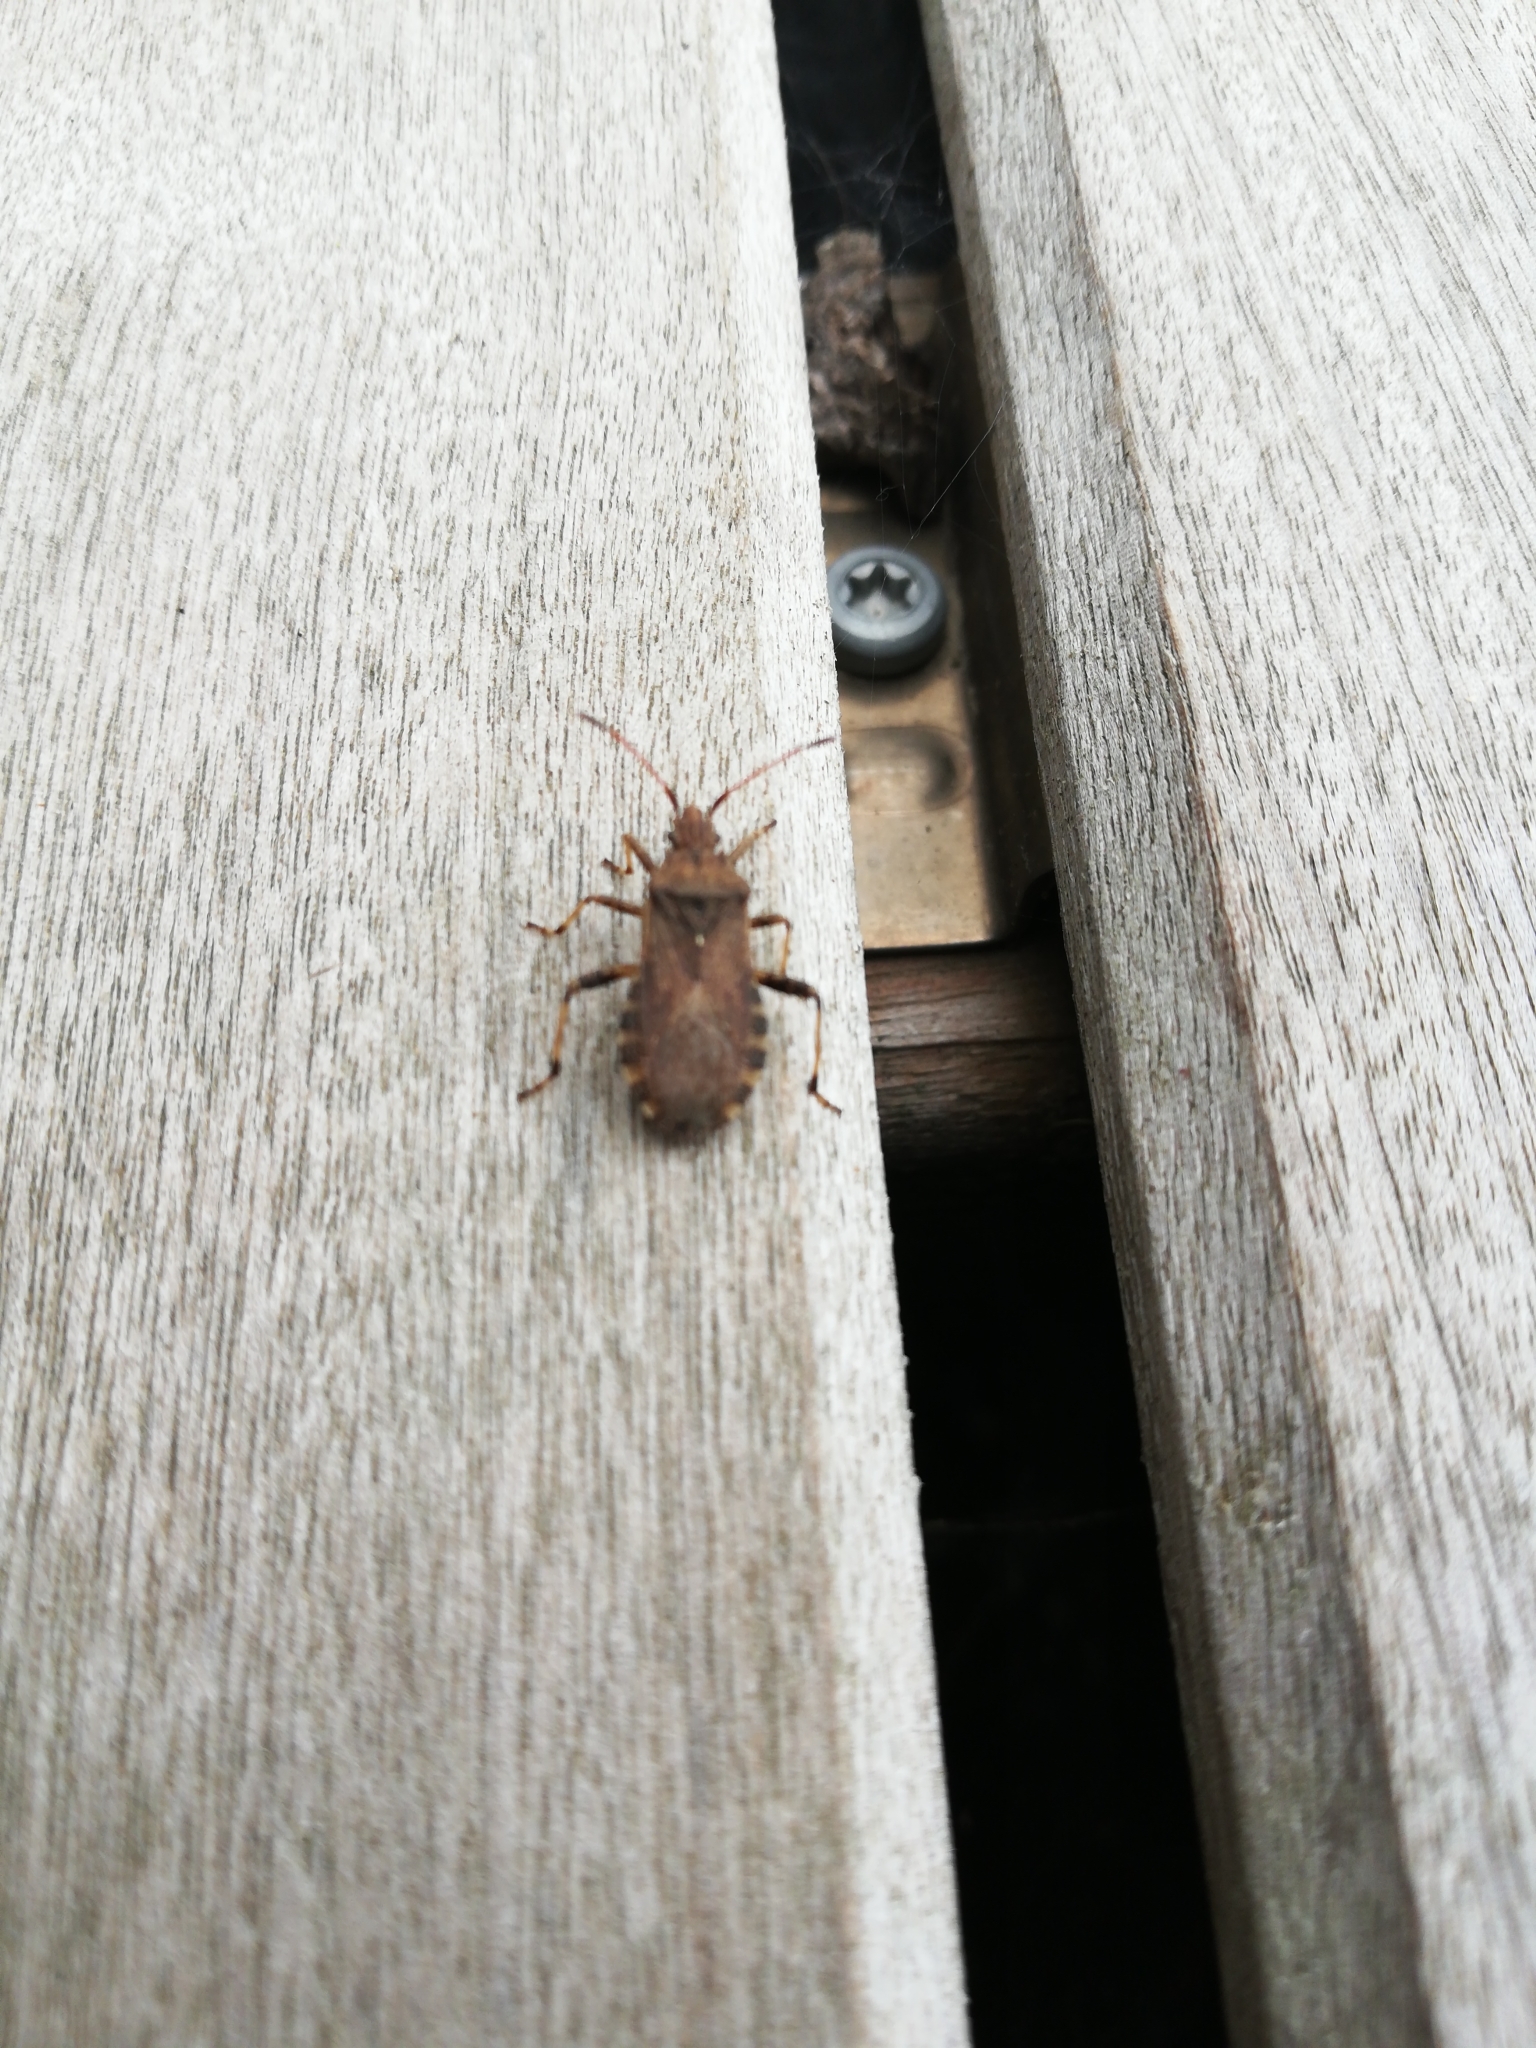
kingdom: Animalia
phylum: Arthropoda
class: Insecta
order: Hemiptera
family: Coreidae
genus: Ceraleptus
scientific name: Ceraleptus gracilicornis
